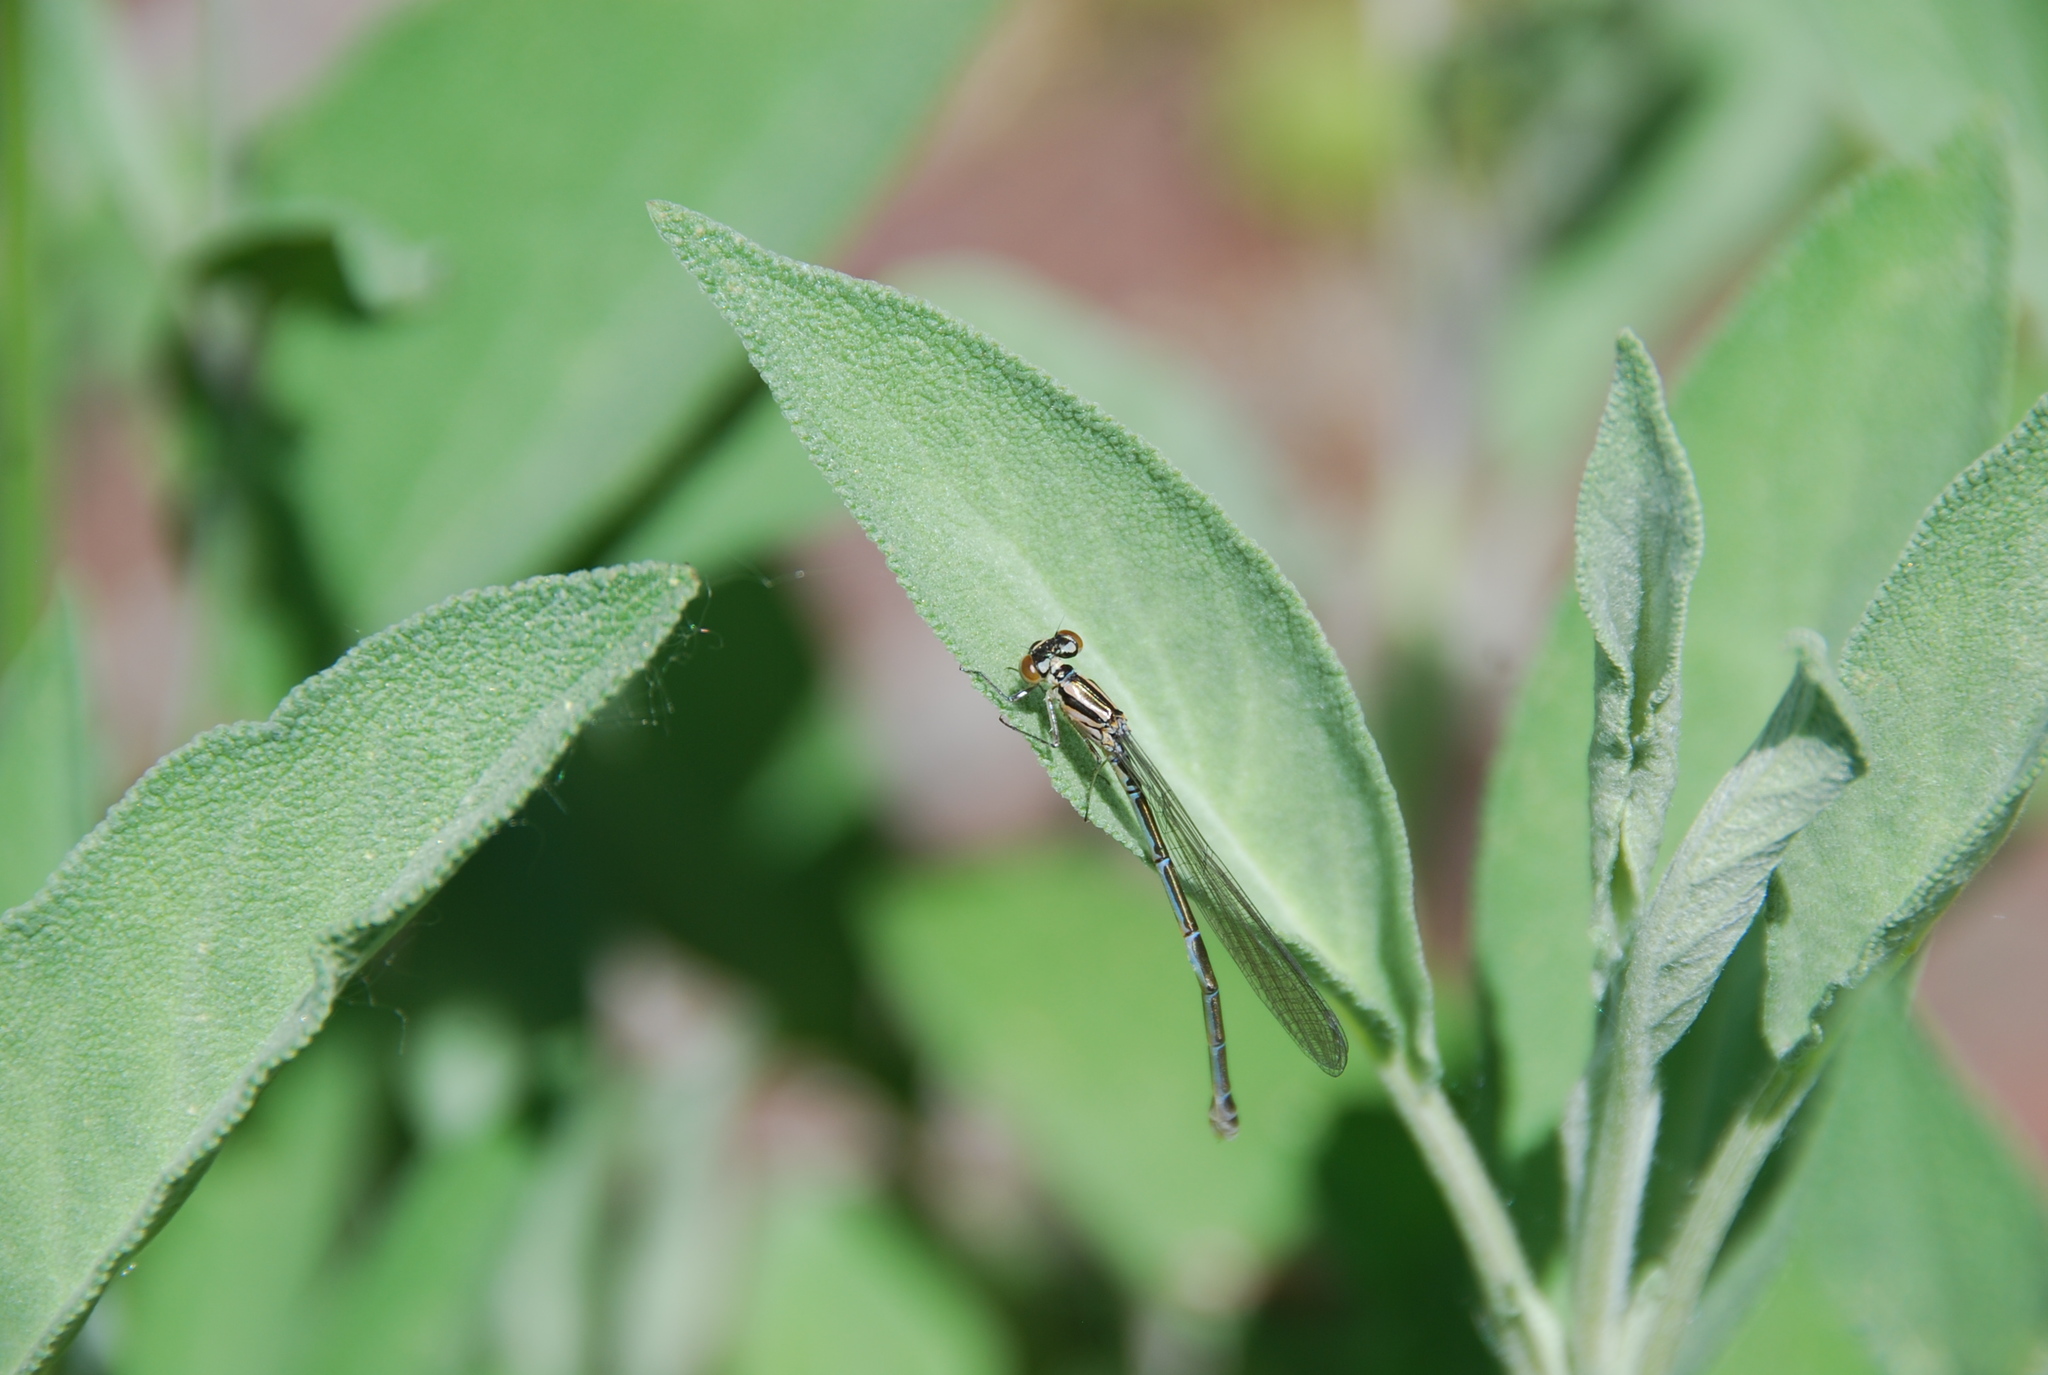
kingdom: Animalia
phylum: Arthropoda
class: Insecta
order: Odonata
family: Coenagrionidae
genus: Coenagrion
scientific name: Coenagrion puella
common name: Azure damselfly
